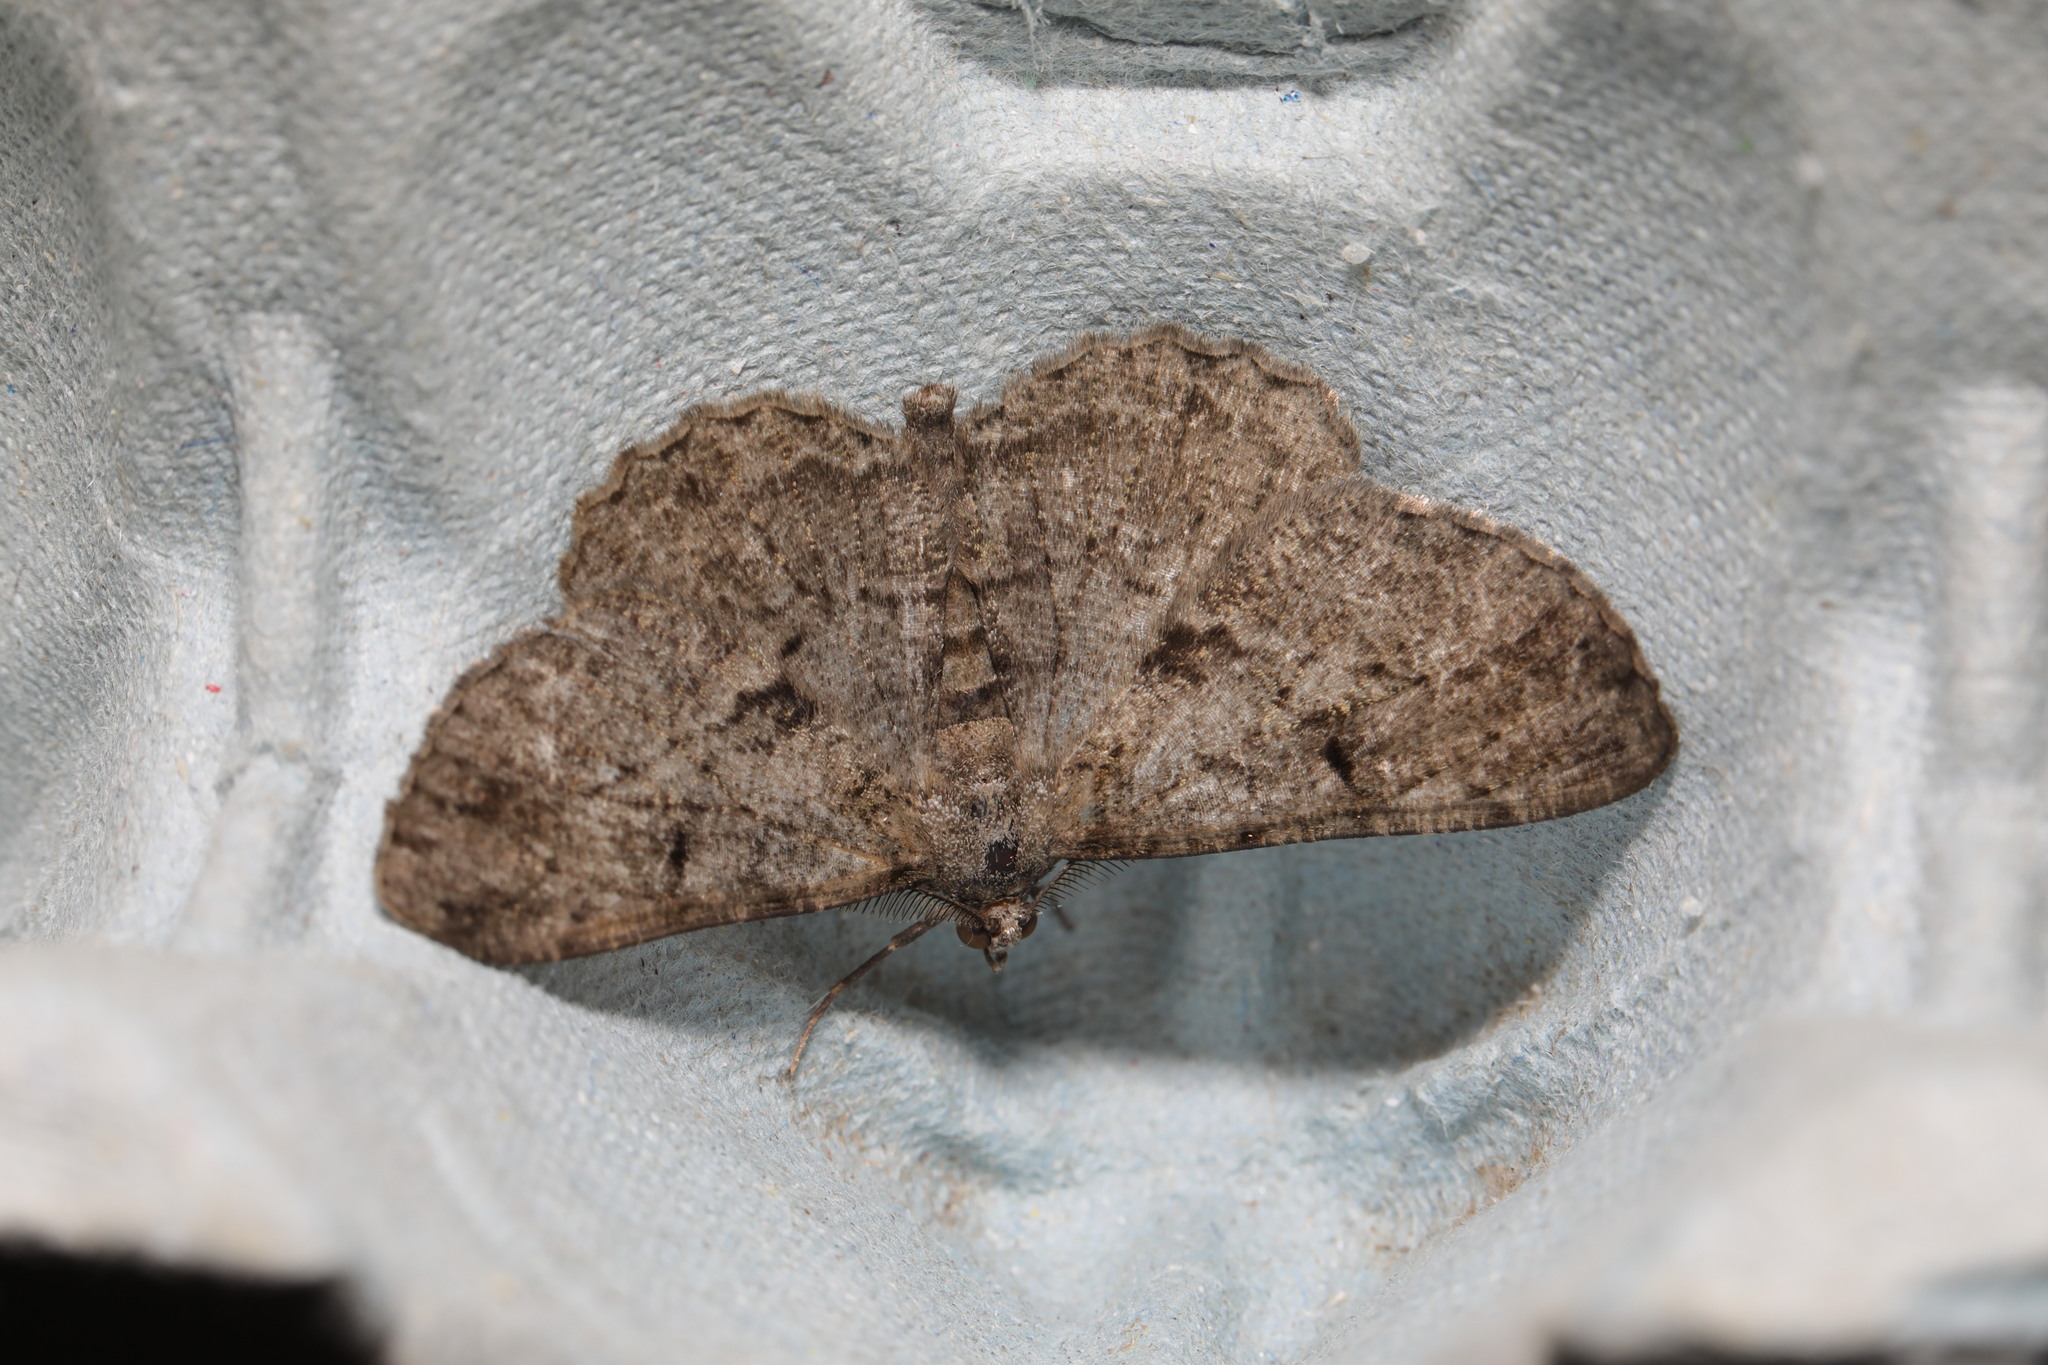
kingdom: Animalia
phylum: Arthropoda
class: Insecta
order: Lepidoptera
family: Geometridae
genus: Peribatodes
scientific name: Peribatodes rhomboidaria
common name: Willow beauty
